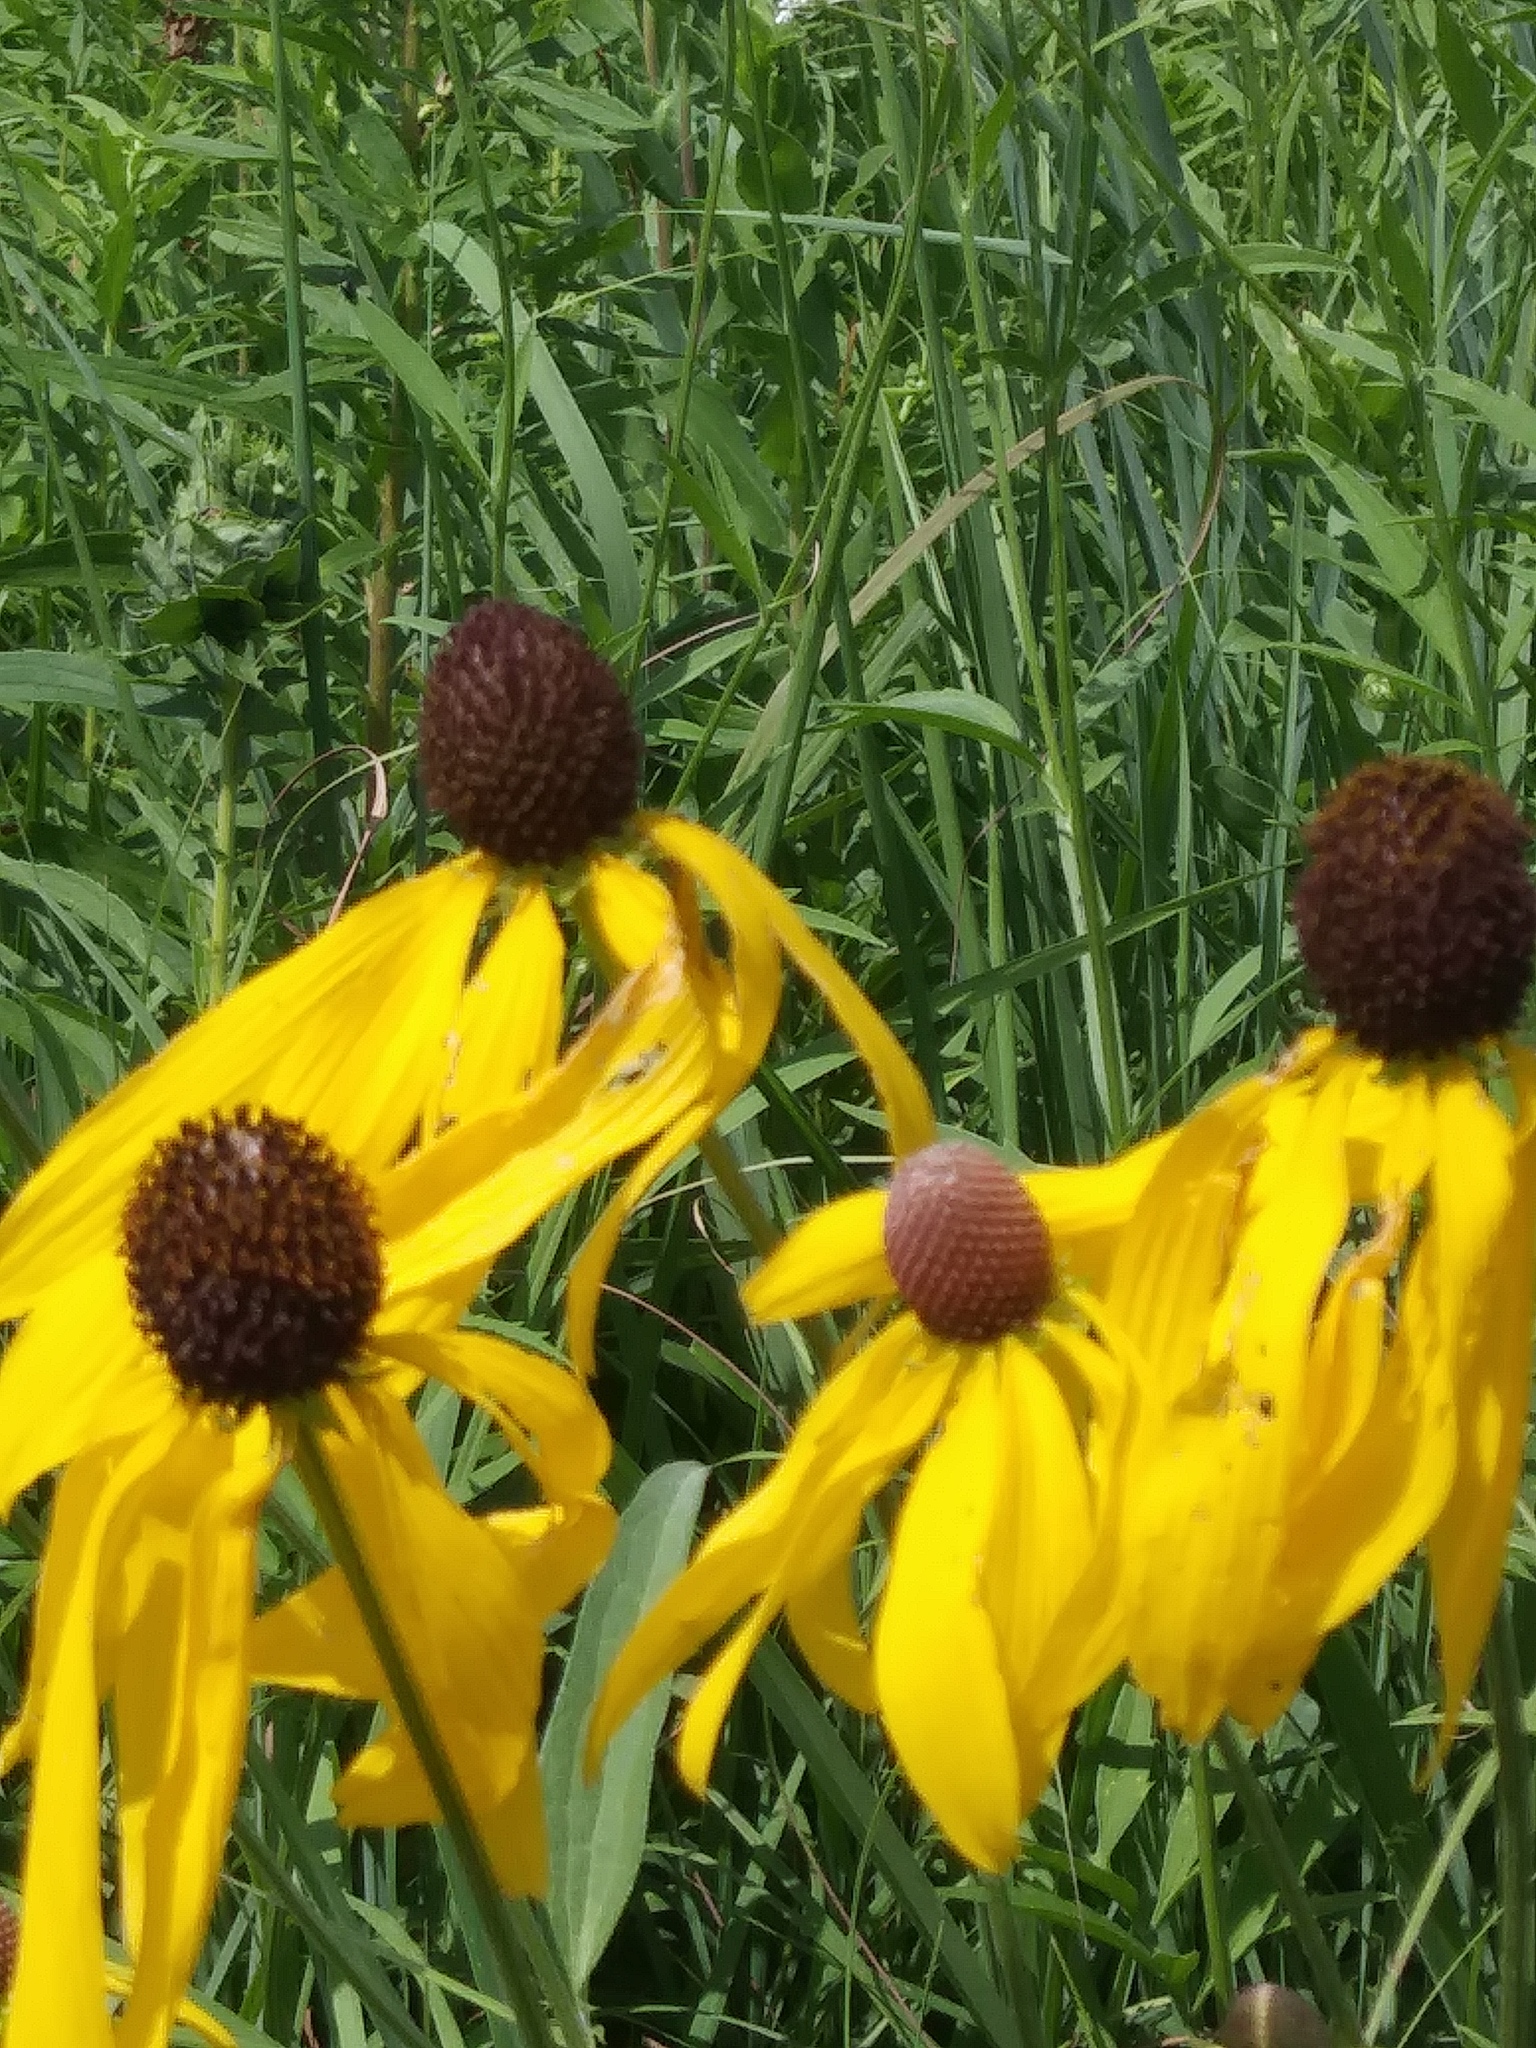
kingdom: Plantae
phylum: Tracheophyta
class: Magnoliopsida
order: Asterales
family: Asteraceae
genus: Ratibida
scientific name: Ratibida pinnata
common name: Drooping prairie-coneflower
